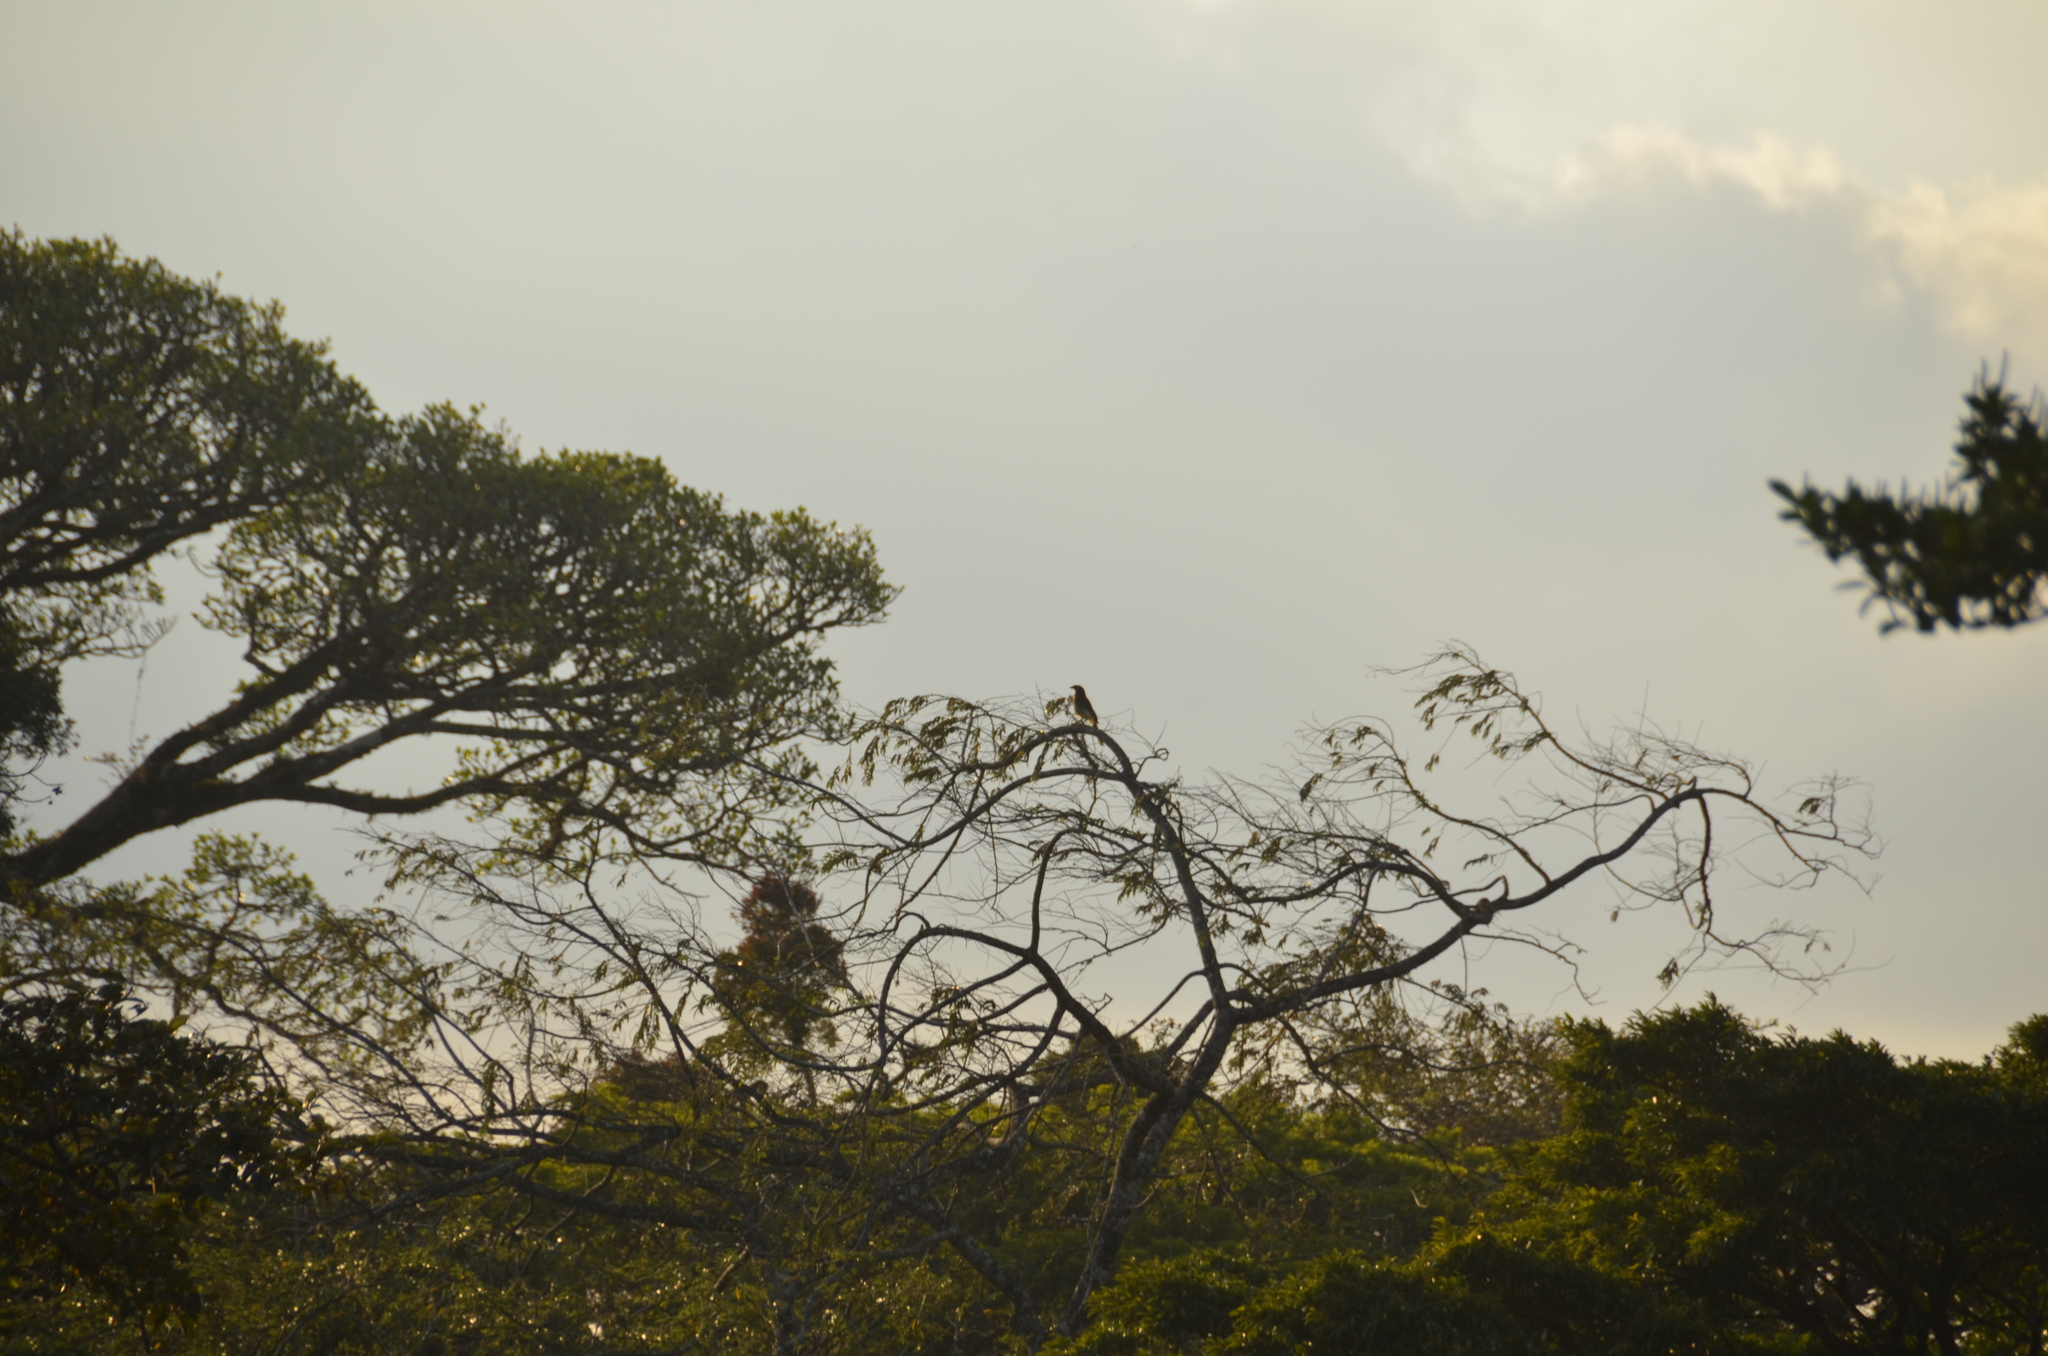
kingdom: Animalia
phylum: Chordata
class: Aves
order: Passeriformes
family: Corvidae
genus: Psilorhinus
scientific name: Psilorhinus morio
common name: Brown jay
